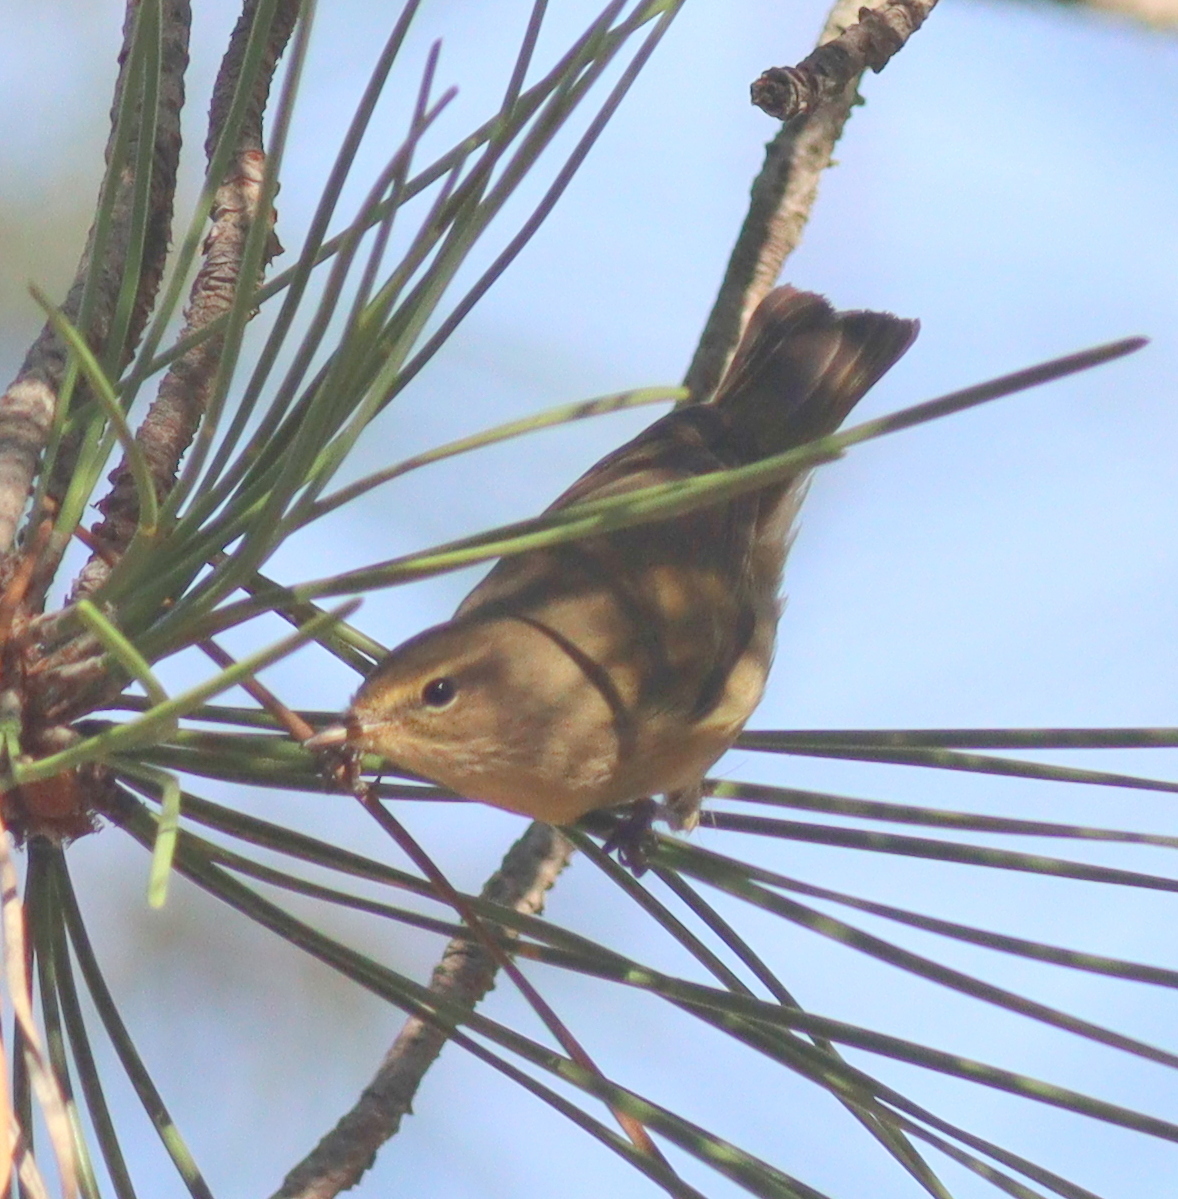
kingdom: Animalia
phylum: Chordata
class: Aves
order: Passeriformes
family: Phylloscopidae
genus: Phylloscopus
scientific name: Phylloscopus collybita
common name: Common chiffchaff
